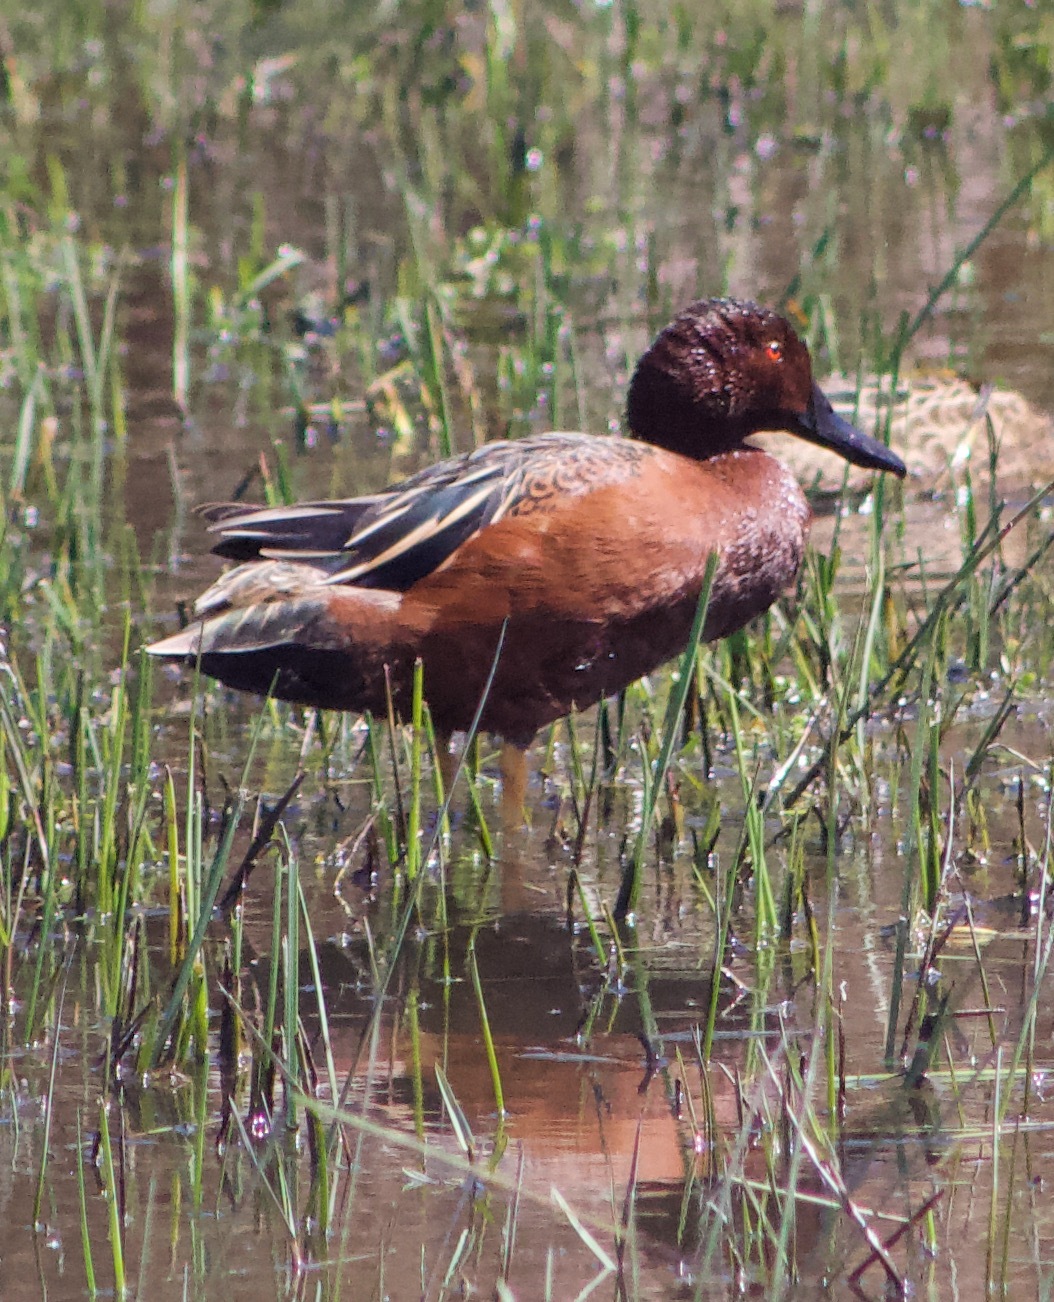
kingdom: Animalia
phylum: Chordata
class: Aves
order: Anseriformes
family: Anatidae
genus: Spatula
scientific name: Spatula cyanoptera
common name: Cinnamon teal
